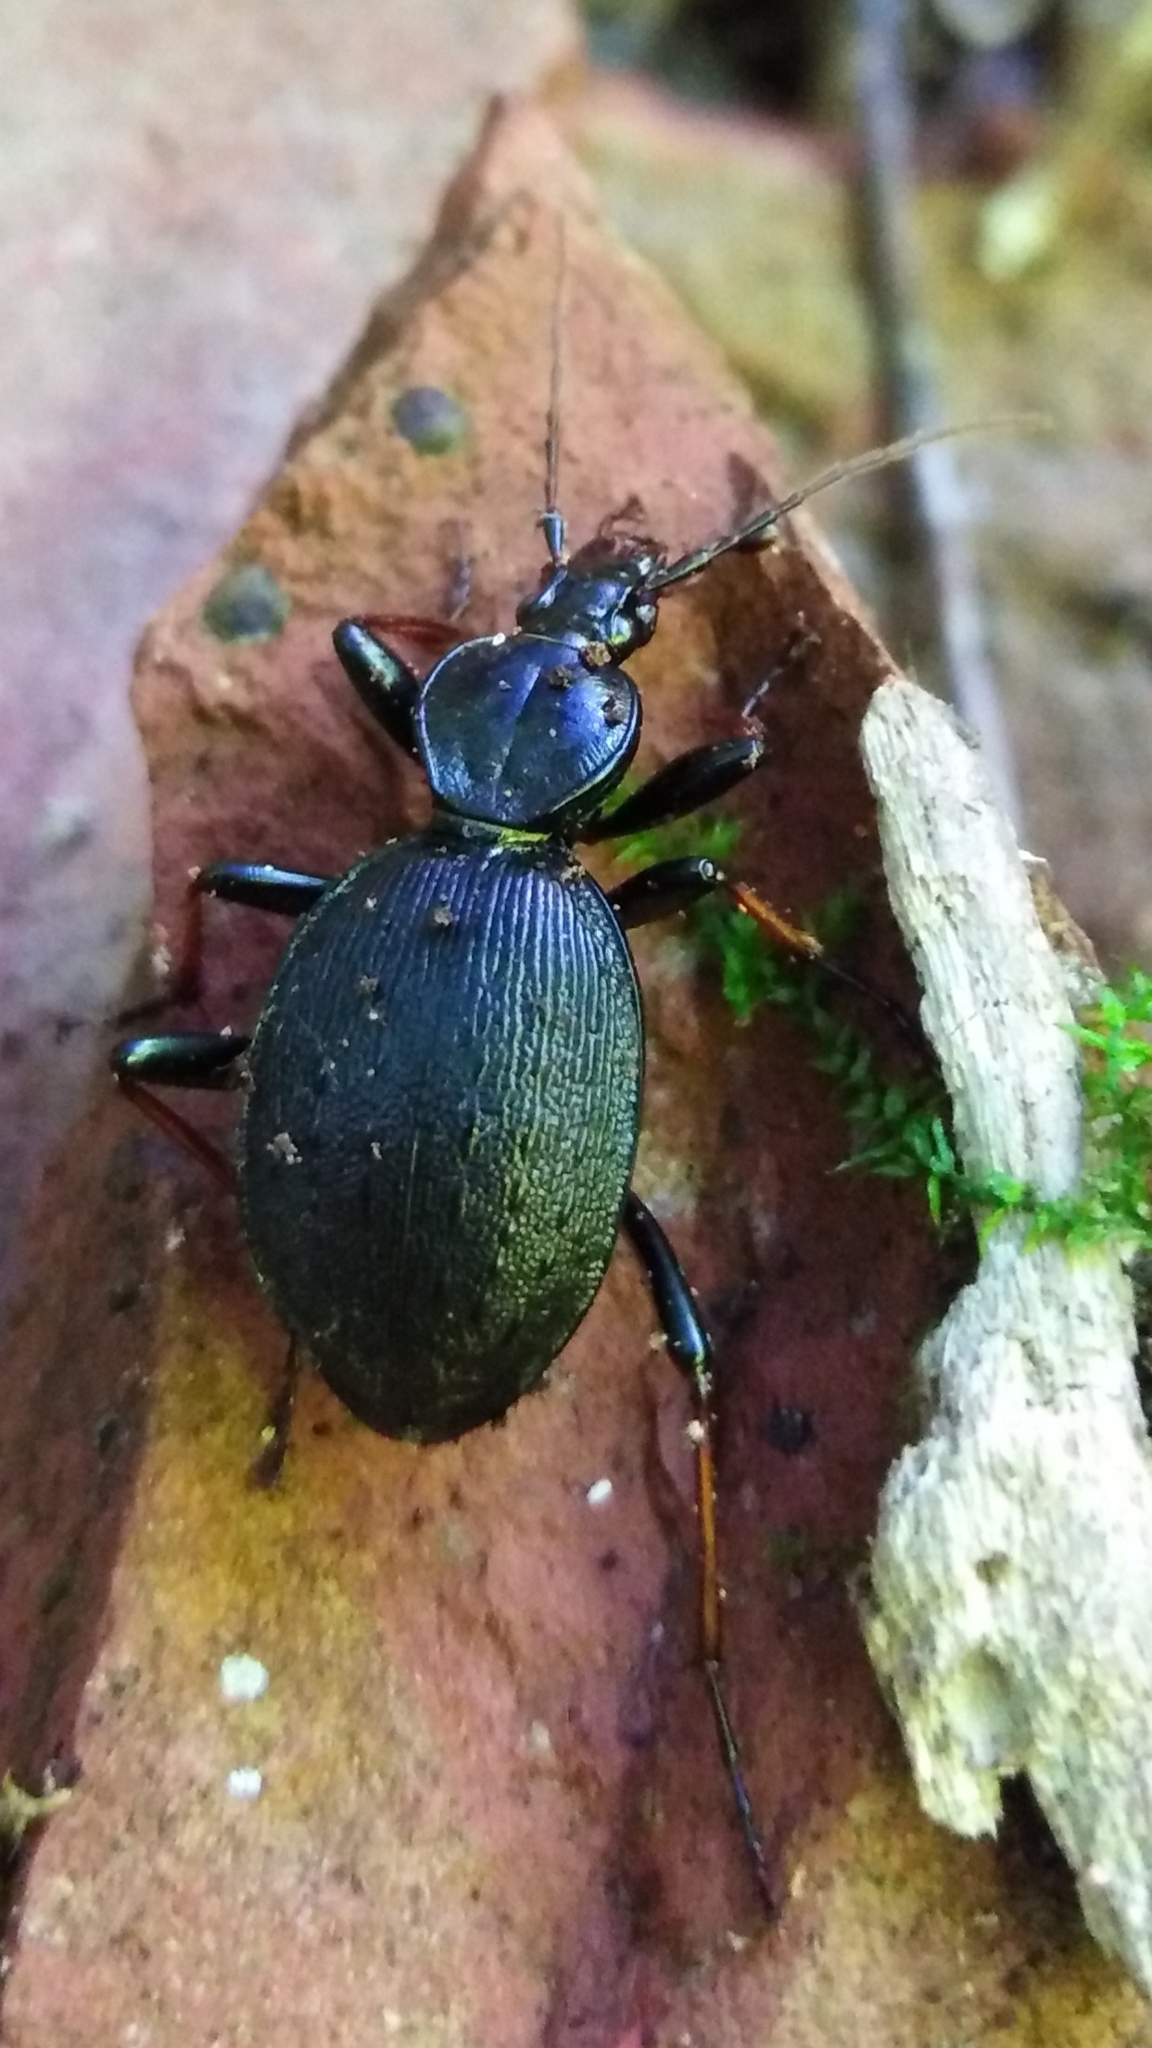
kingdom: Animalia
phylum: Arthropoda
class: Insecta
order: Coleoptera
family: Carabidae
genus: Cychrus
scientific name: Cychrus attenuatus
